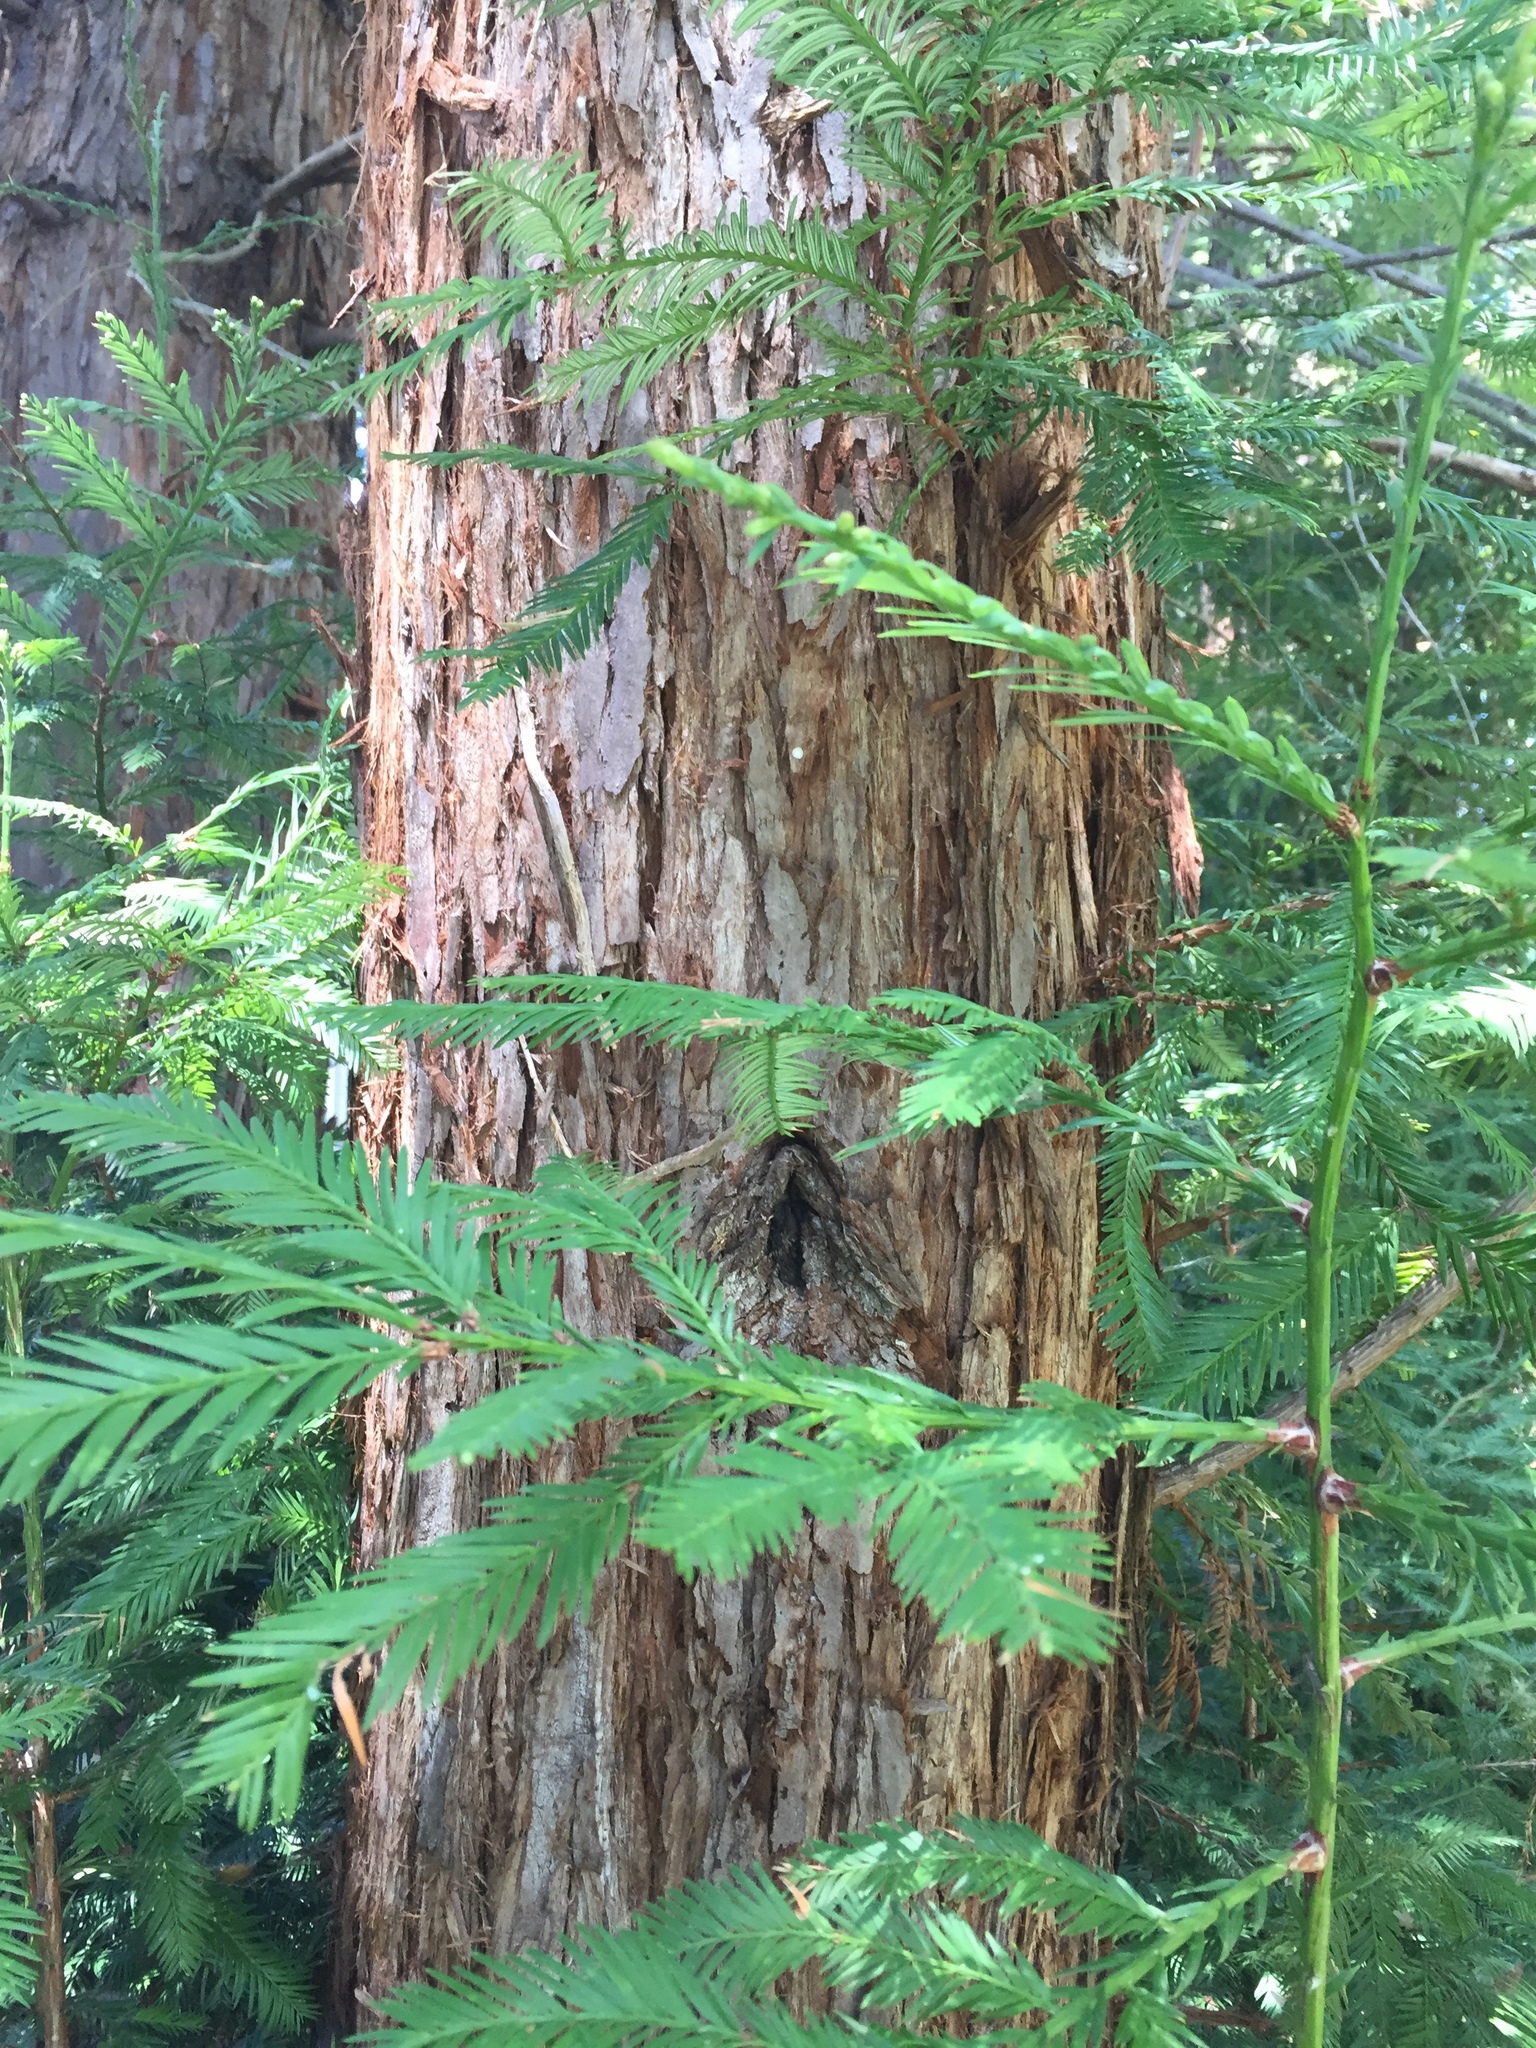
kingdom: Plantae
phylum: Tracheophyta
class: Pinopsida
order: Pinales
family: Cupressaceae
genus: Sequoia
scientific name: Sequoia sempervirens
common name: Coast redwood
